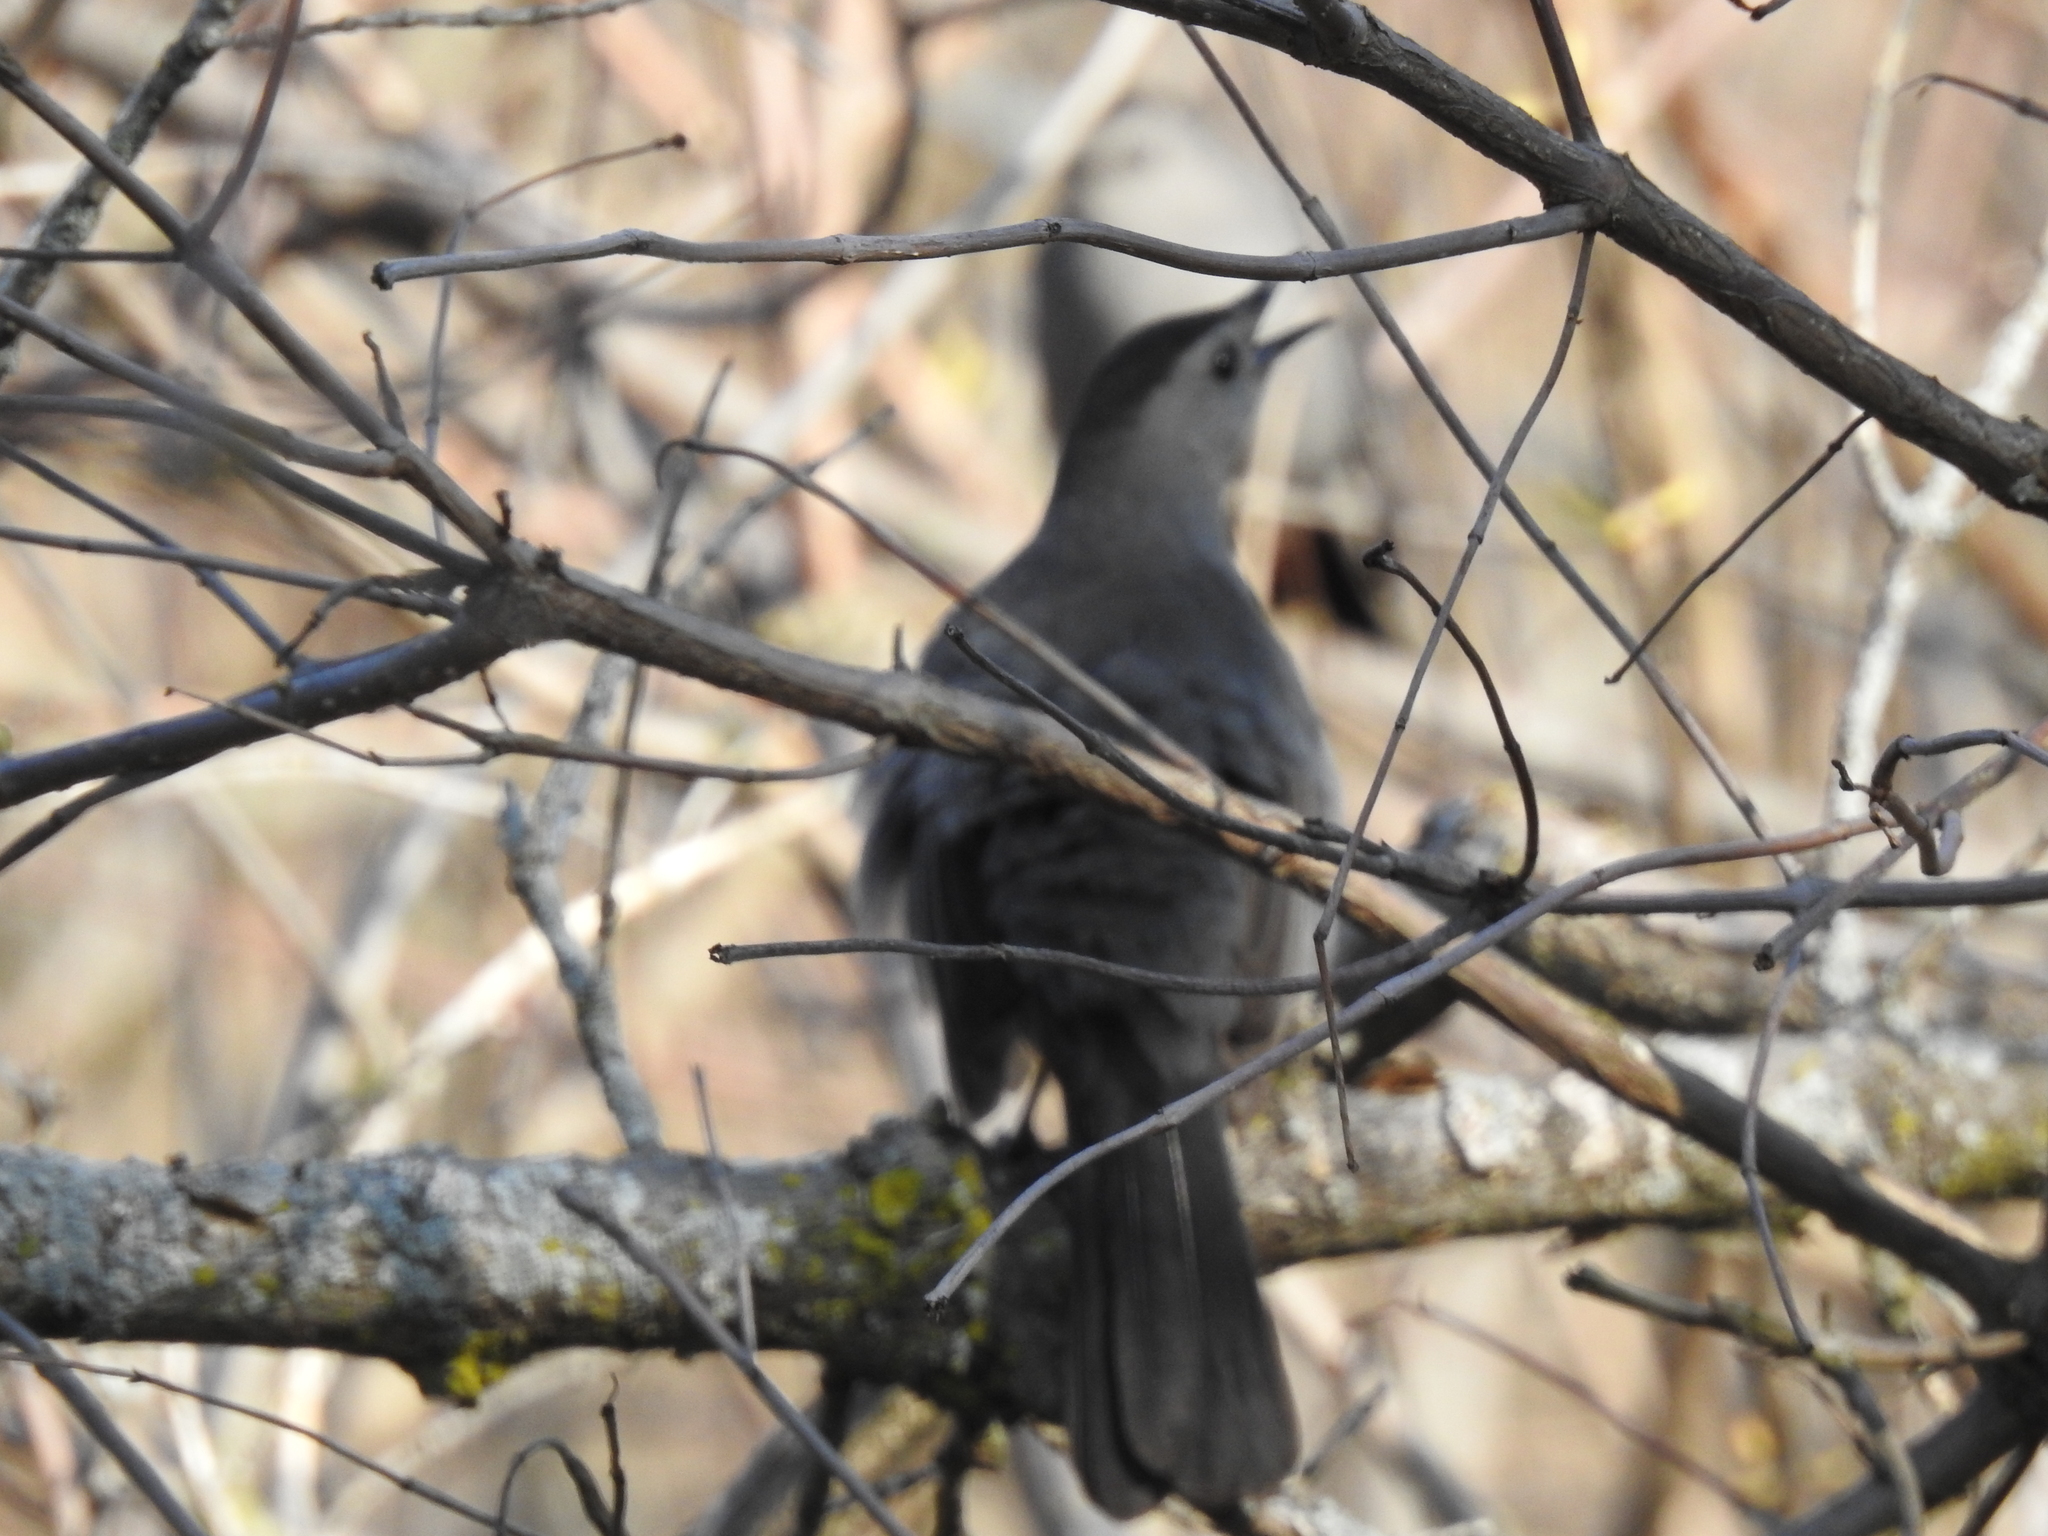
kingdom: Animalia
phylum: Chordata
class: Aves
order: Passeriformes
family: Mimidae
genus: Dumetella
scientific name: Dumetella carolinensis
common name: Gray catbird
